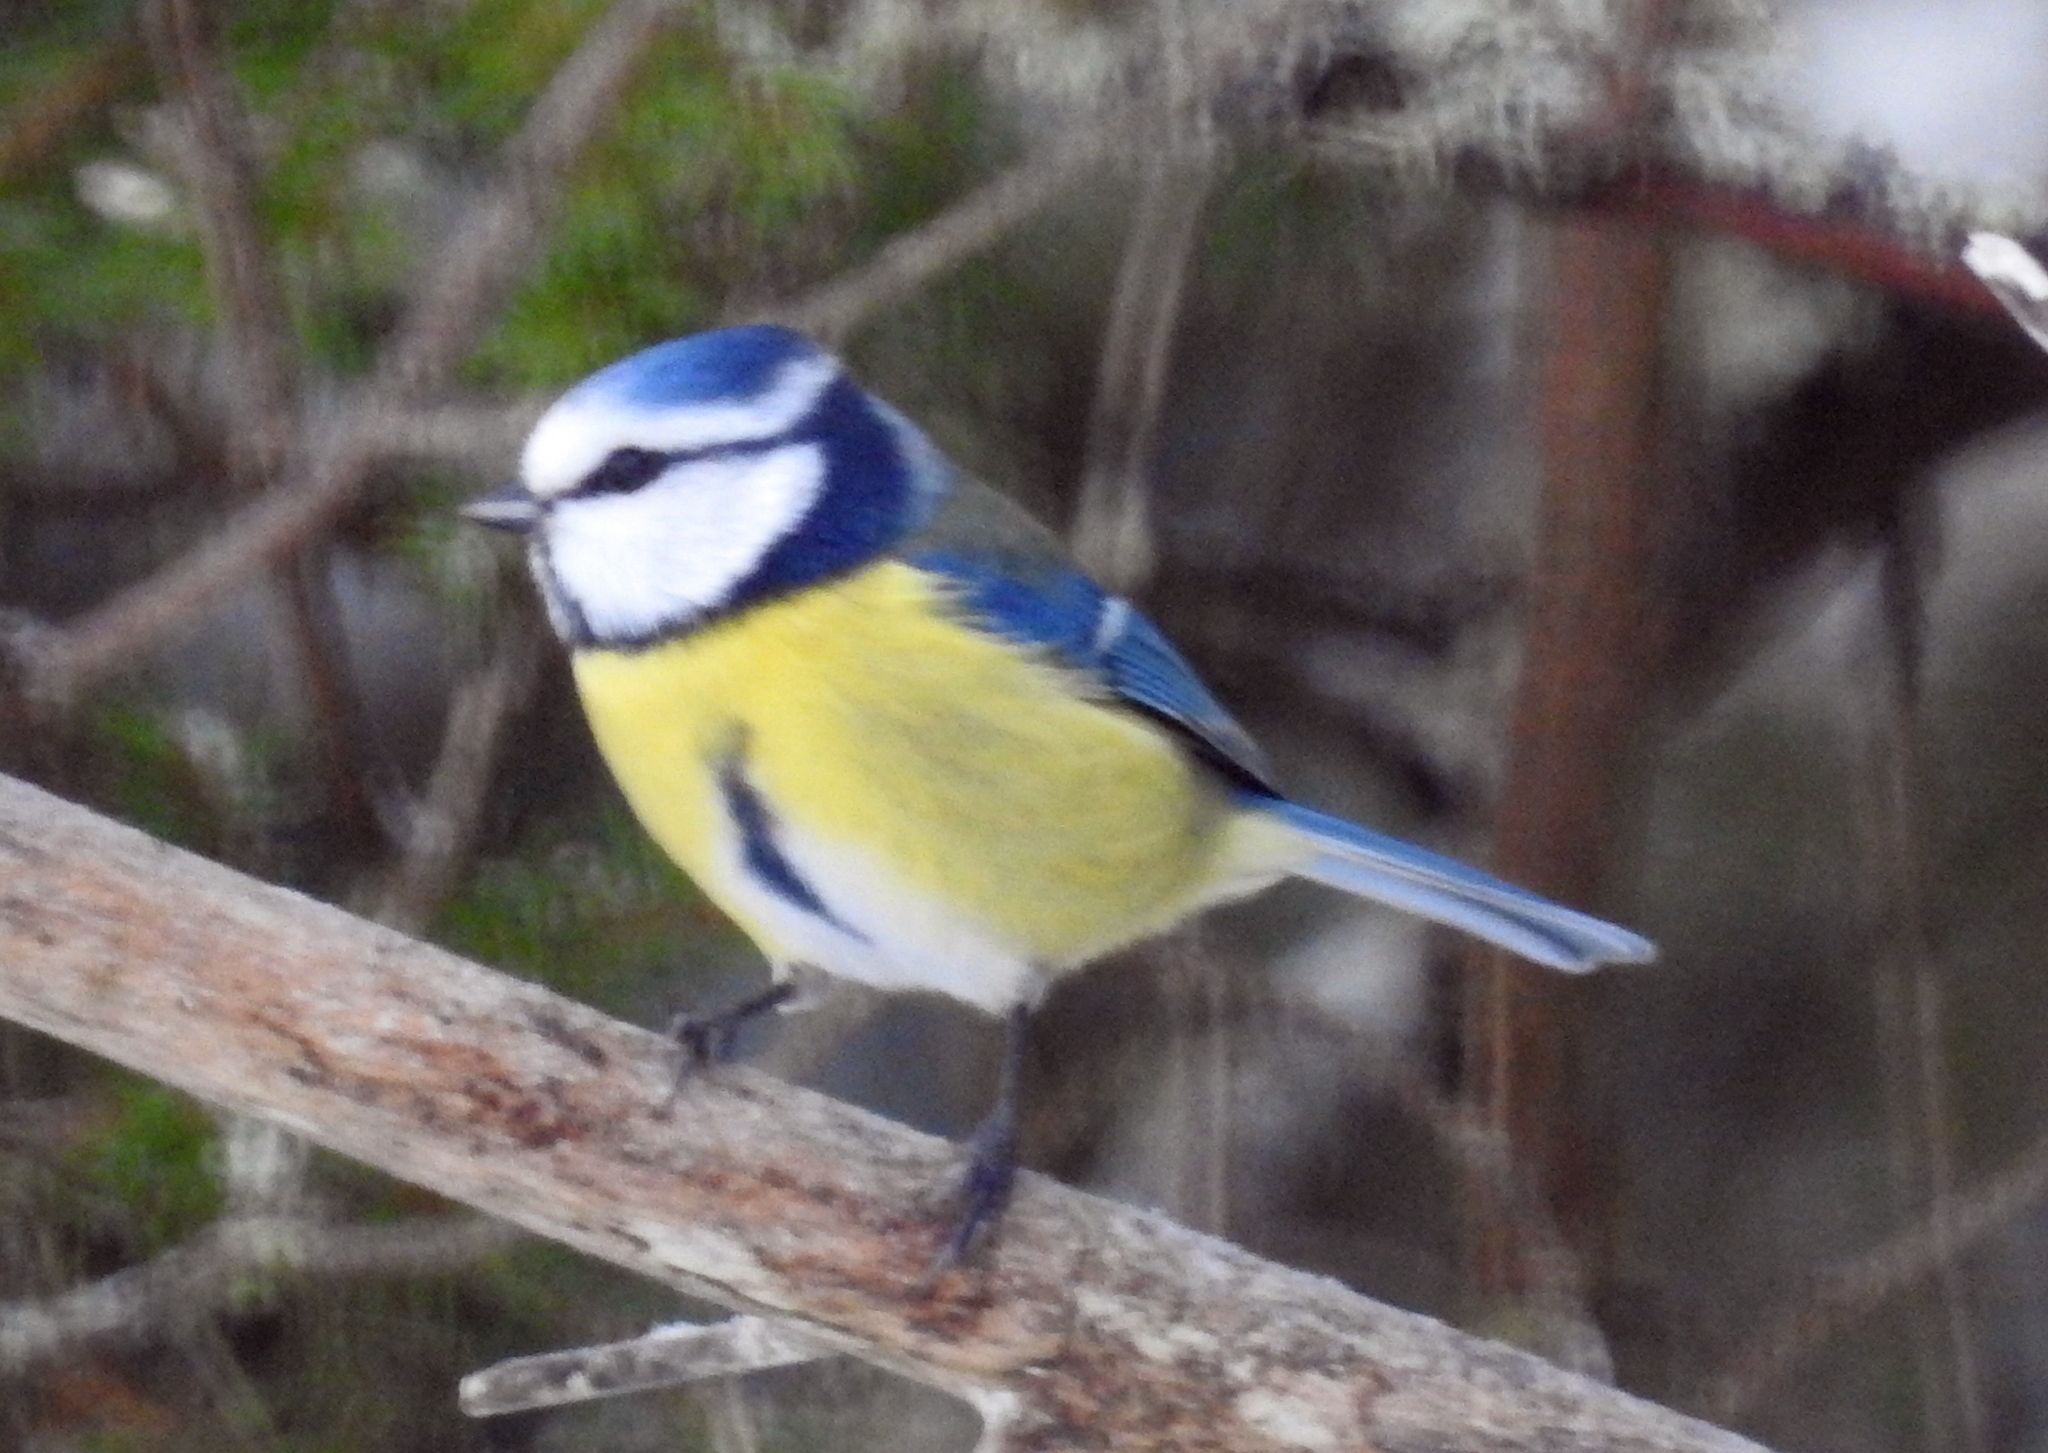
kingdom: Animalia
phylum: Chordata
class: Aves
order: Passeriformes
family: Paridae
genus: Cyanistes
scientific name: Cyanistes caeruleus
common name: Eurasian blue tit
